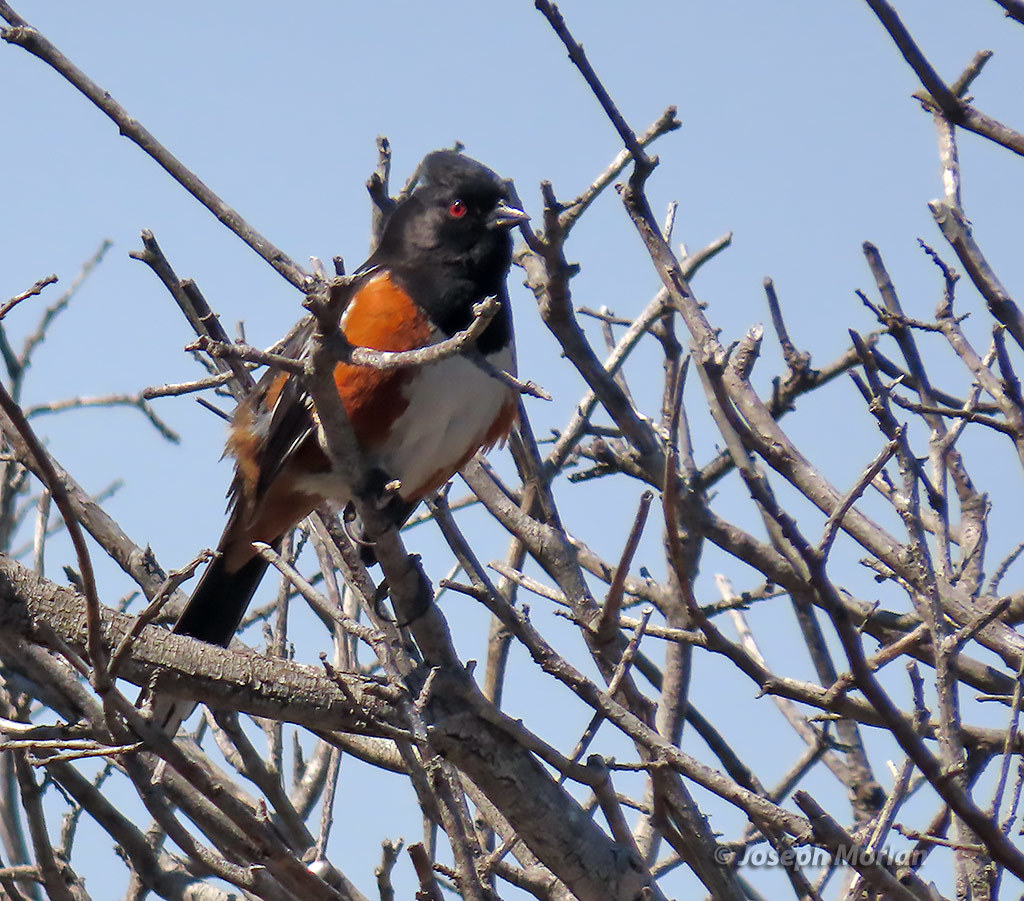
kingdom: Animalia
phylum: Chordata
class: Aves
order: Passeriformes
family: Passerellidae
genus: Pipilo
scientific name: Pipilo maculatus
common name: Spotted towhee
